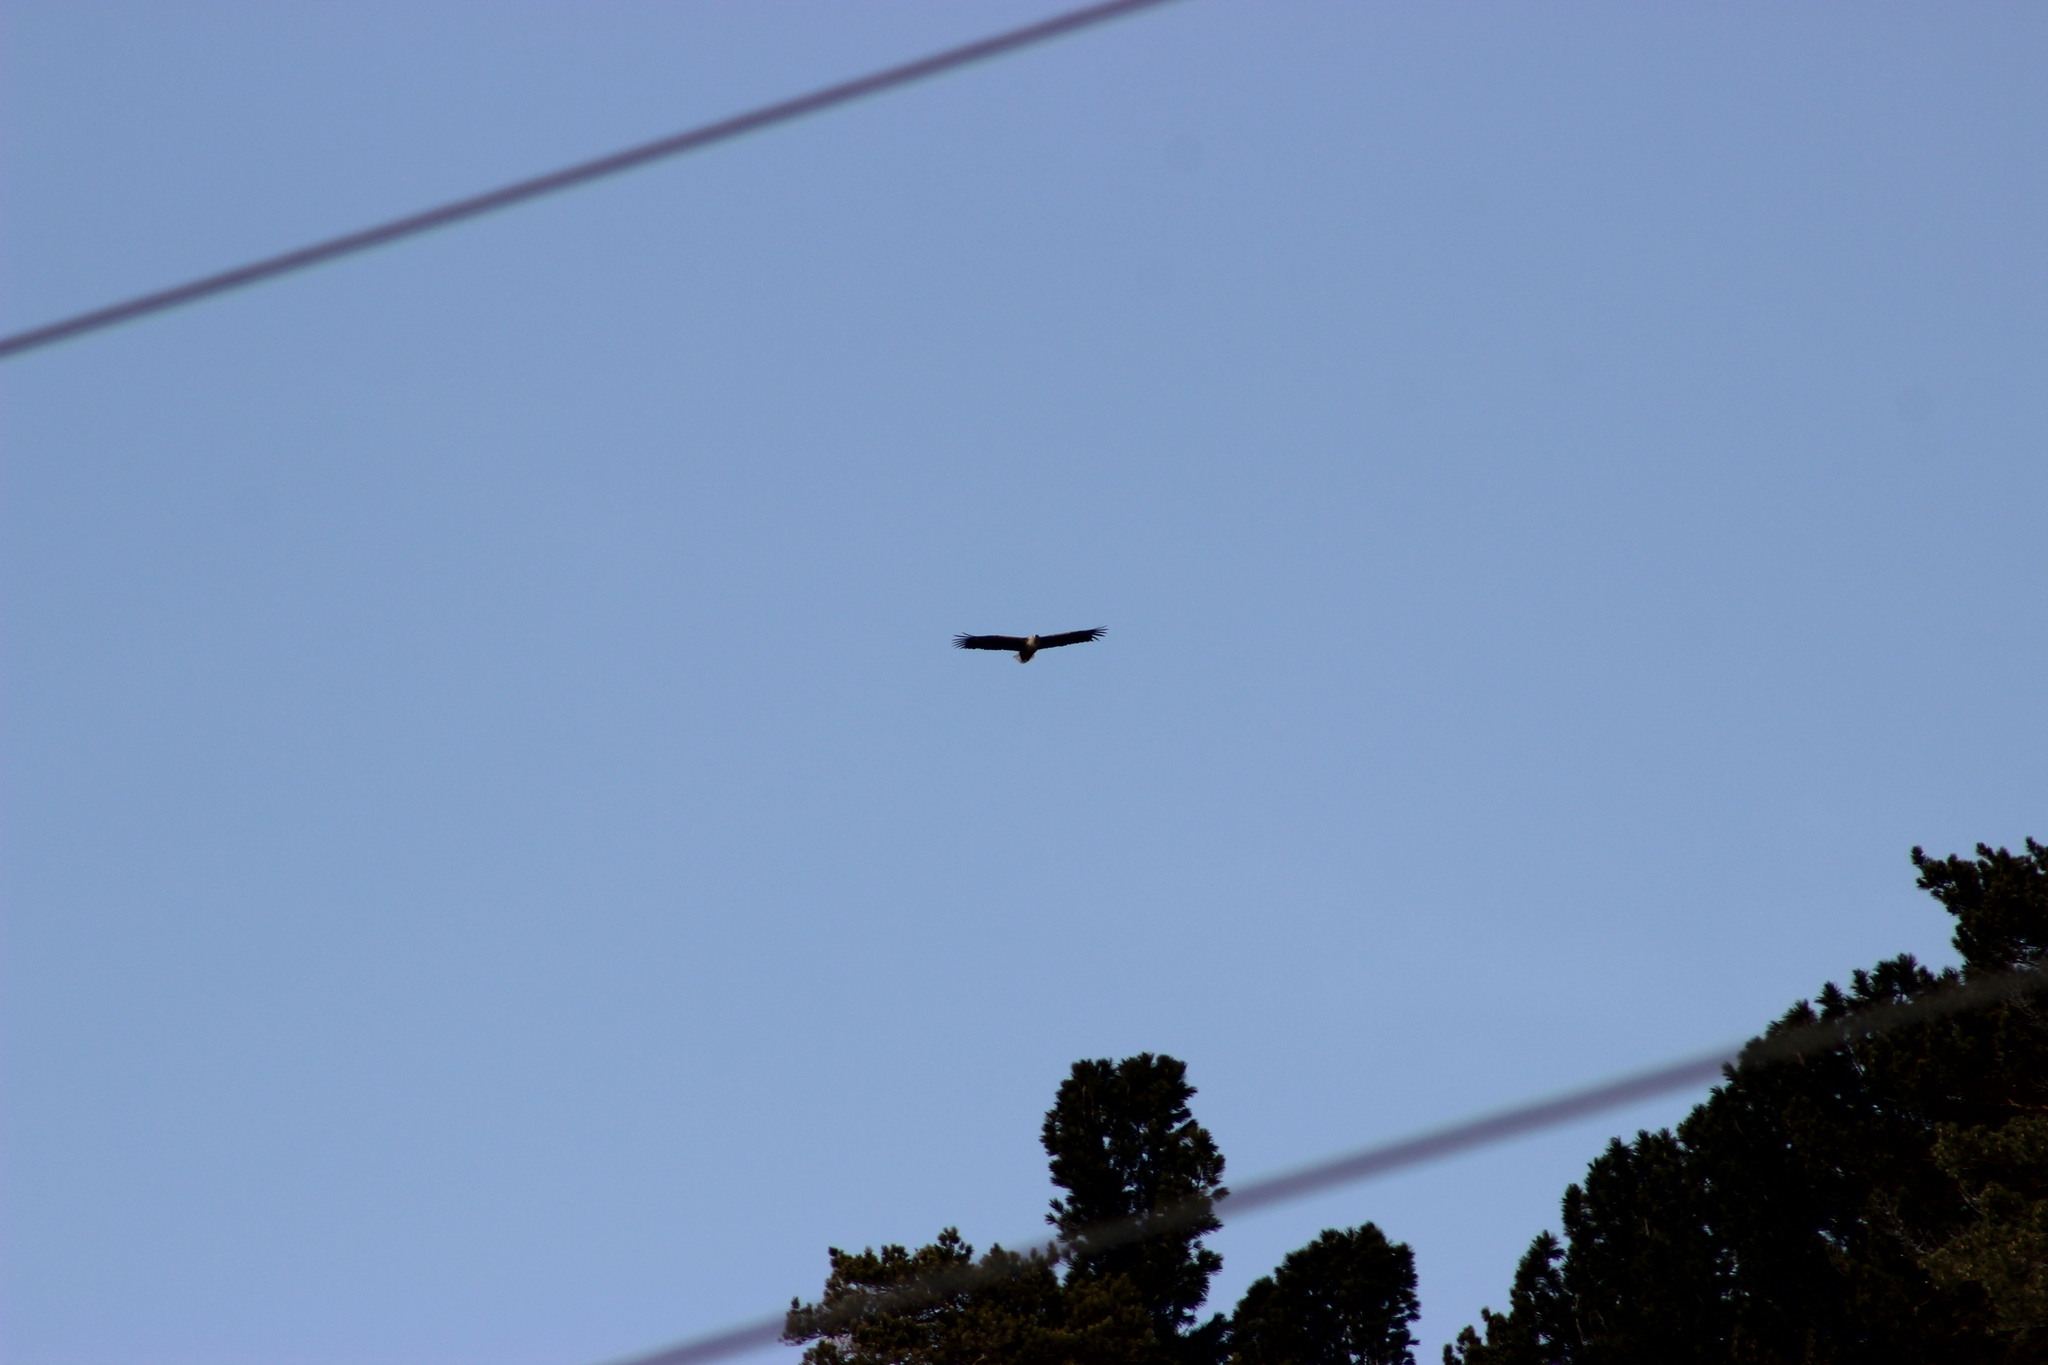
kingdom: Animalia
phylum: Chordata
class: Aves
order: Accipitriformes
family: Accipitridae
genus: Haliaeetus
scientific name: Haliaeetus albicilla
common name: White-tailed eagle
